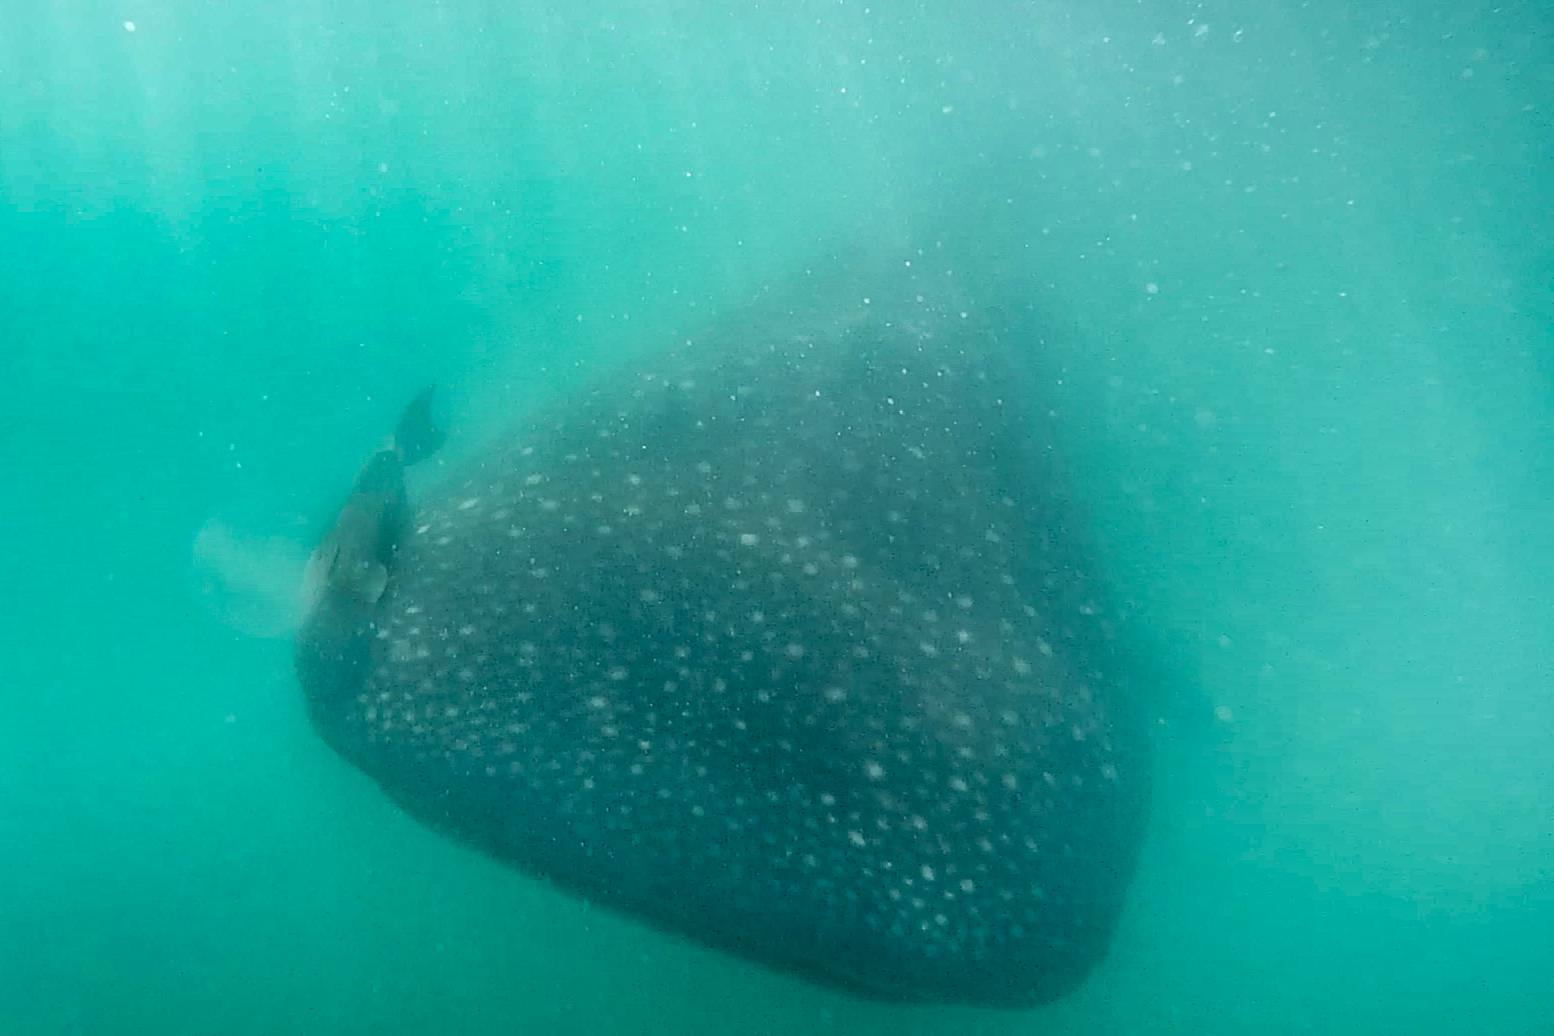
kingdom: Animalia
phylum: Chordata
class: Elasmobranchii
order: Orectolobiformes
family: Rhincodontidae
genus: Rhincodon
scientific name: Rhincodon typus
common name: Whale shark
